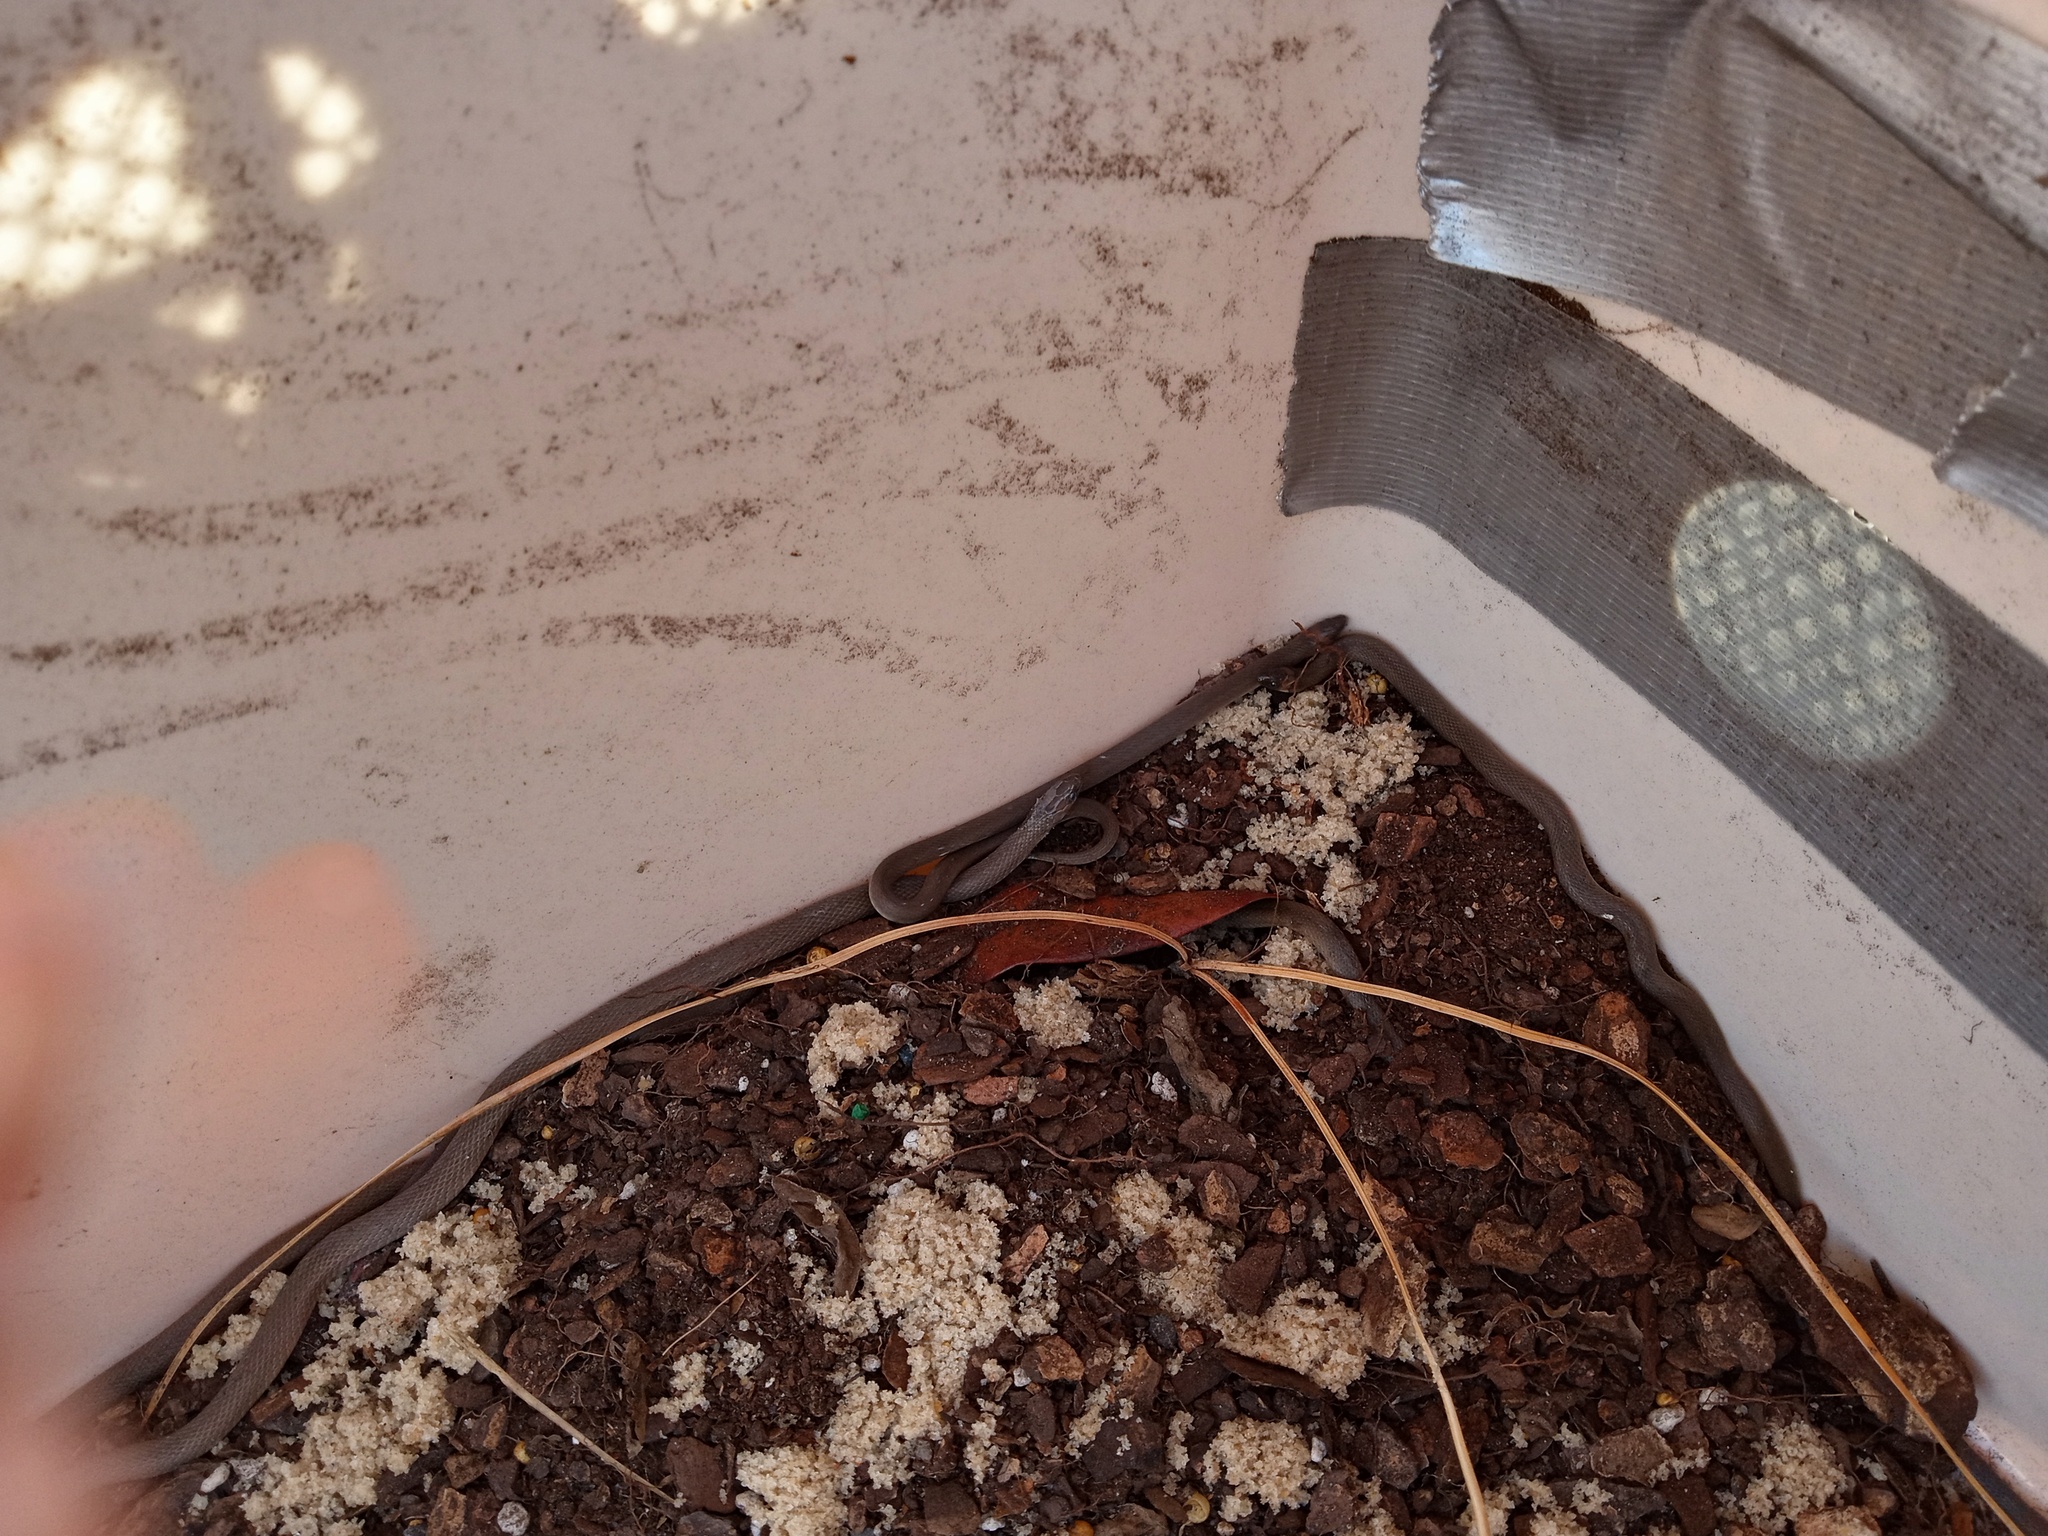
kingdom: Animalia
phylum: Chordata
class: Squamata
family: Colubridae
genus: Haldea
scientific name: Haldea striatula
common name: Rough earth snake
